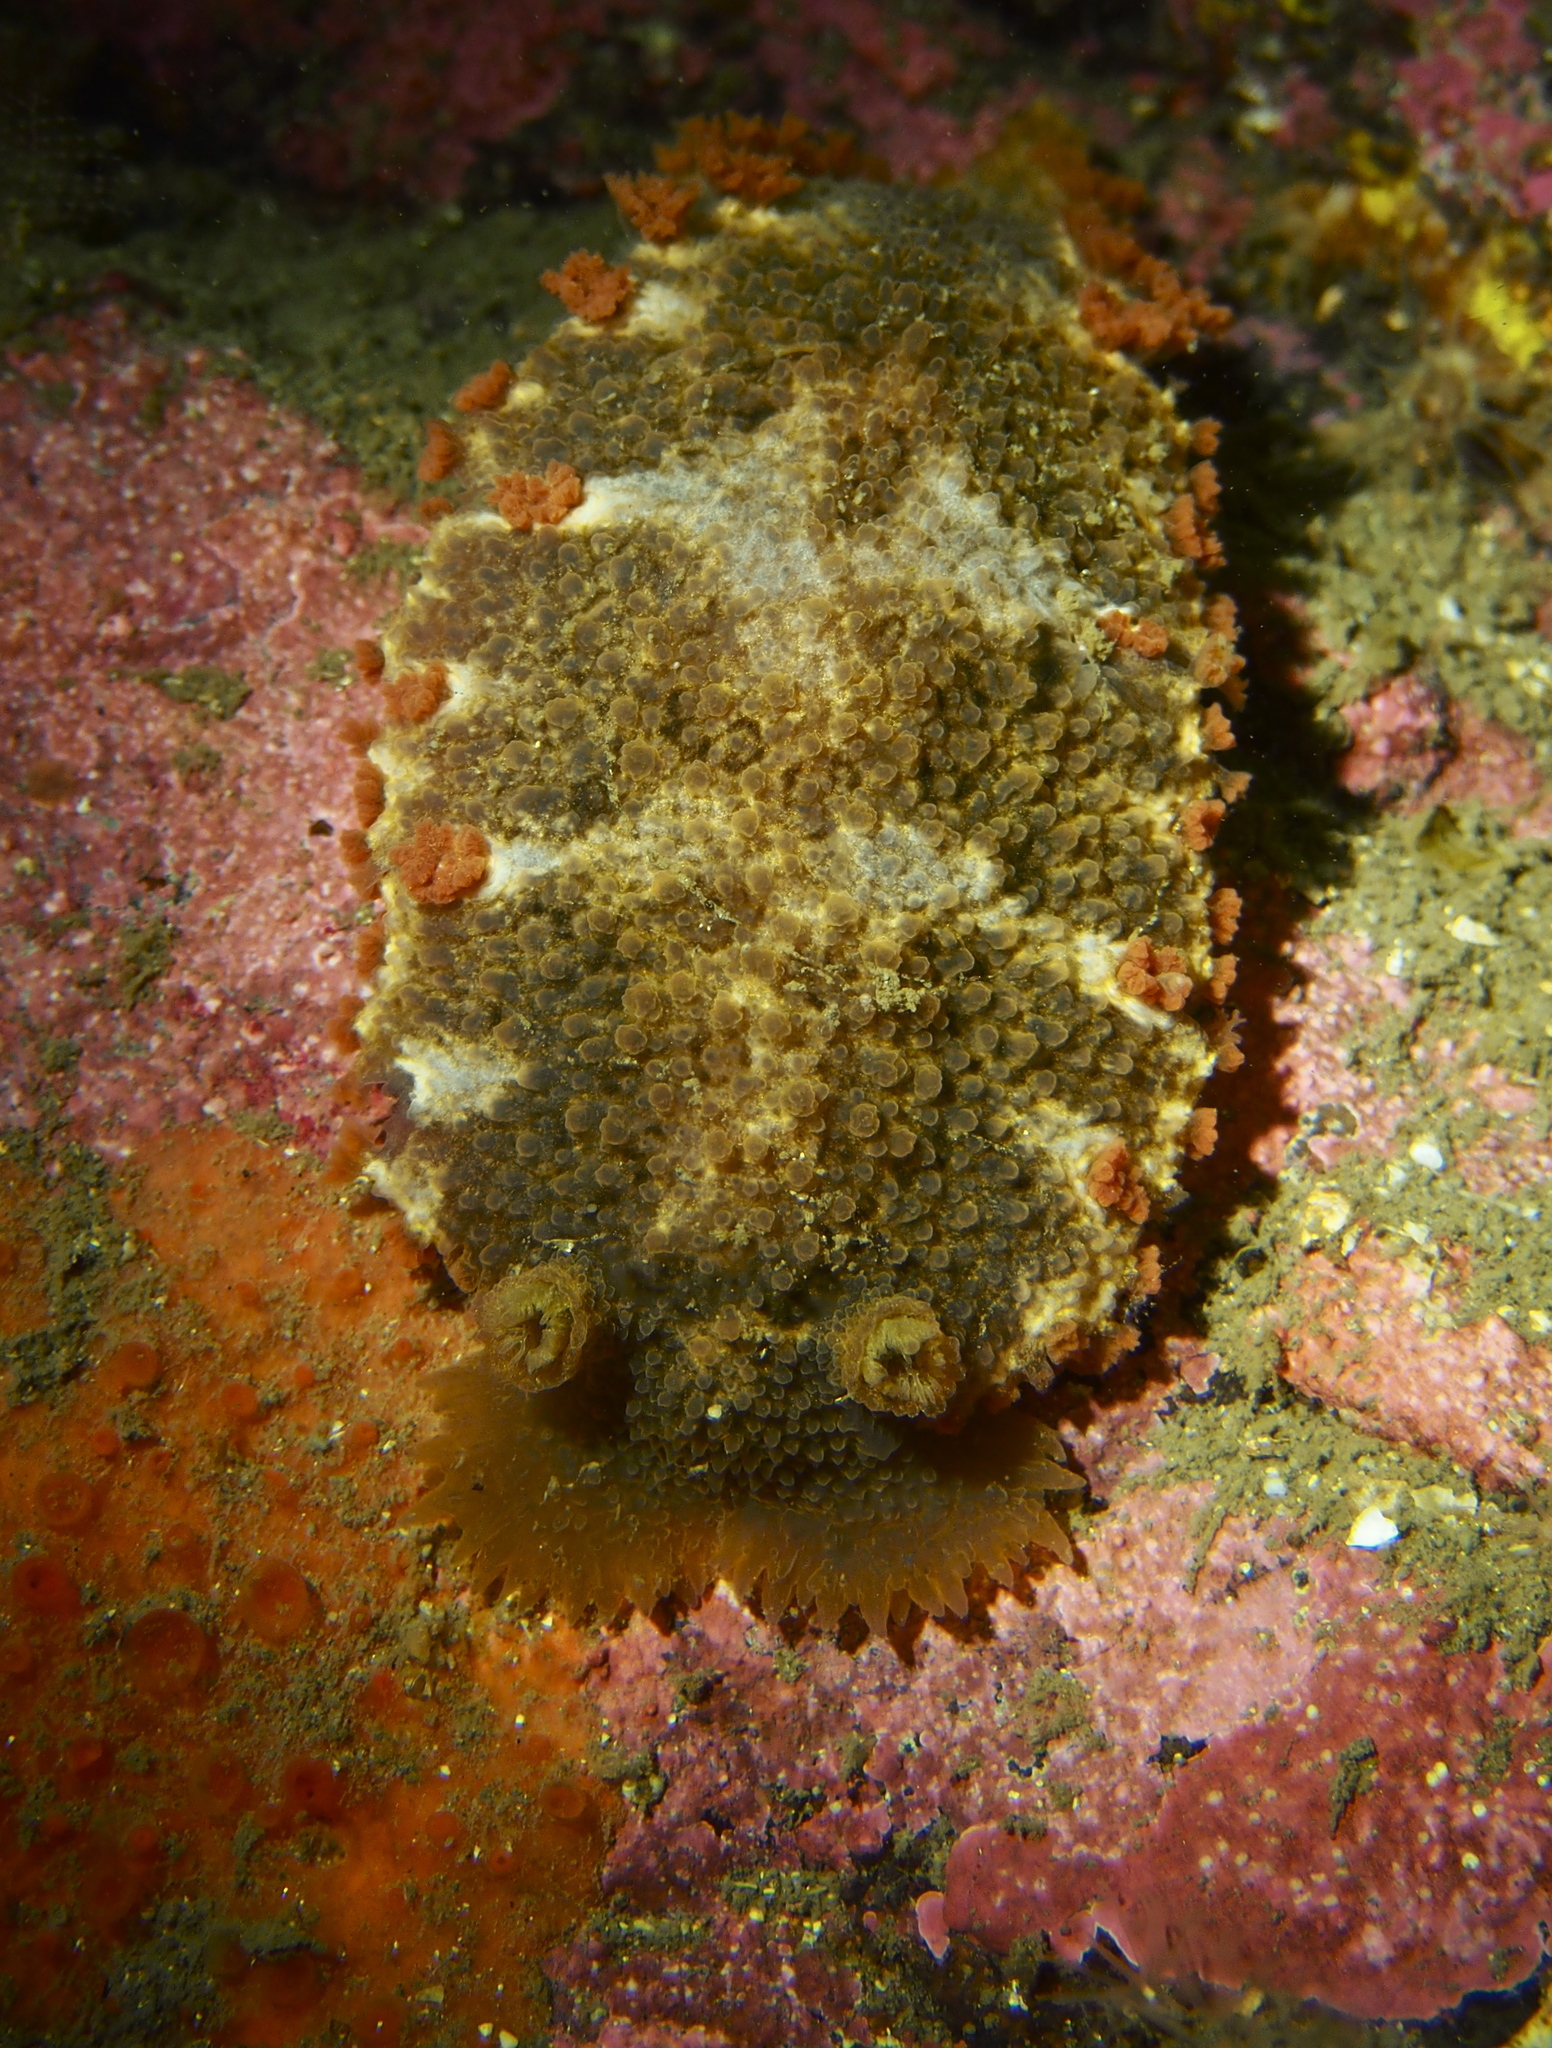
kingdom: Animalia
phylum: Mollusca
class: Gastropoda
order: Nudibranchia
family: Tritoniidae
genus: Tritonia
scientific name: Tritonia hombergii
